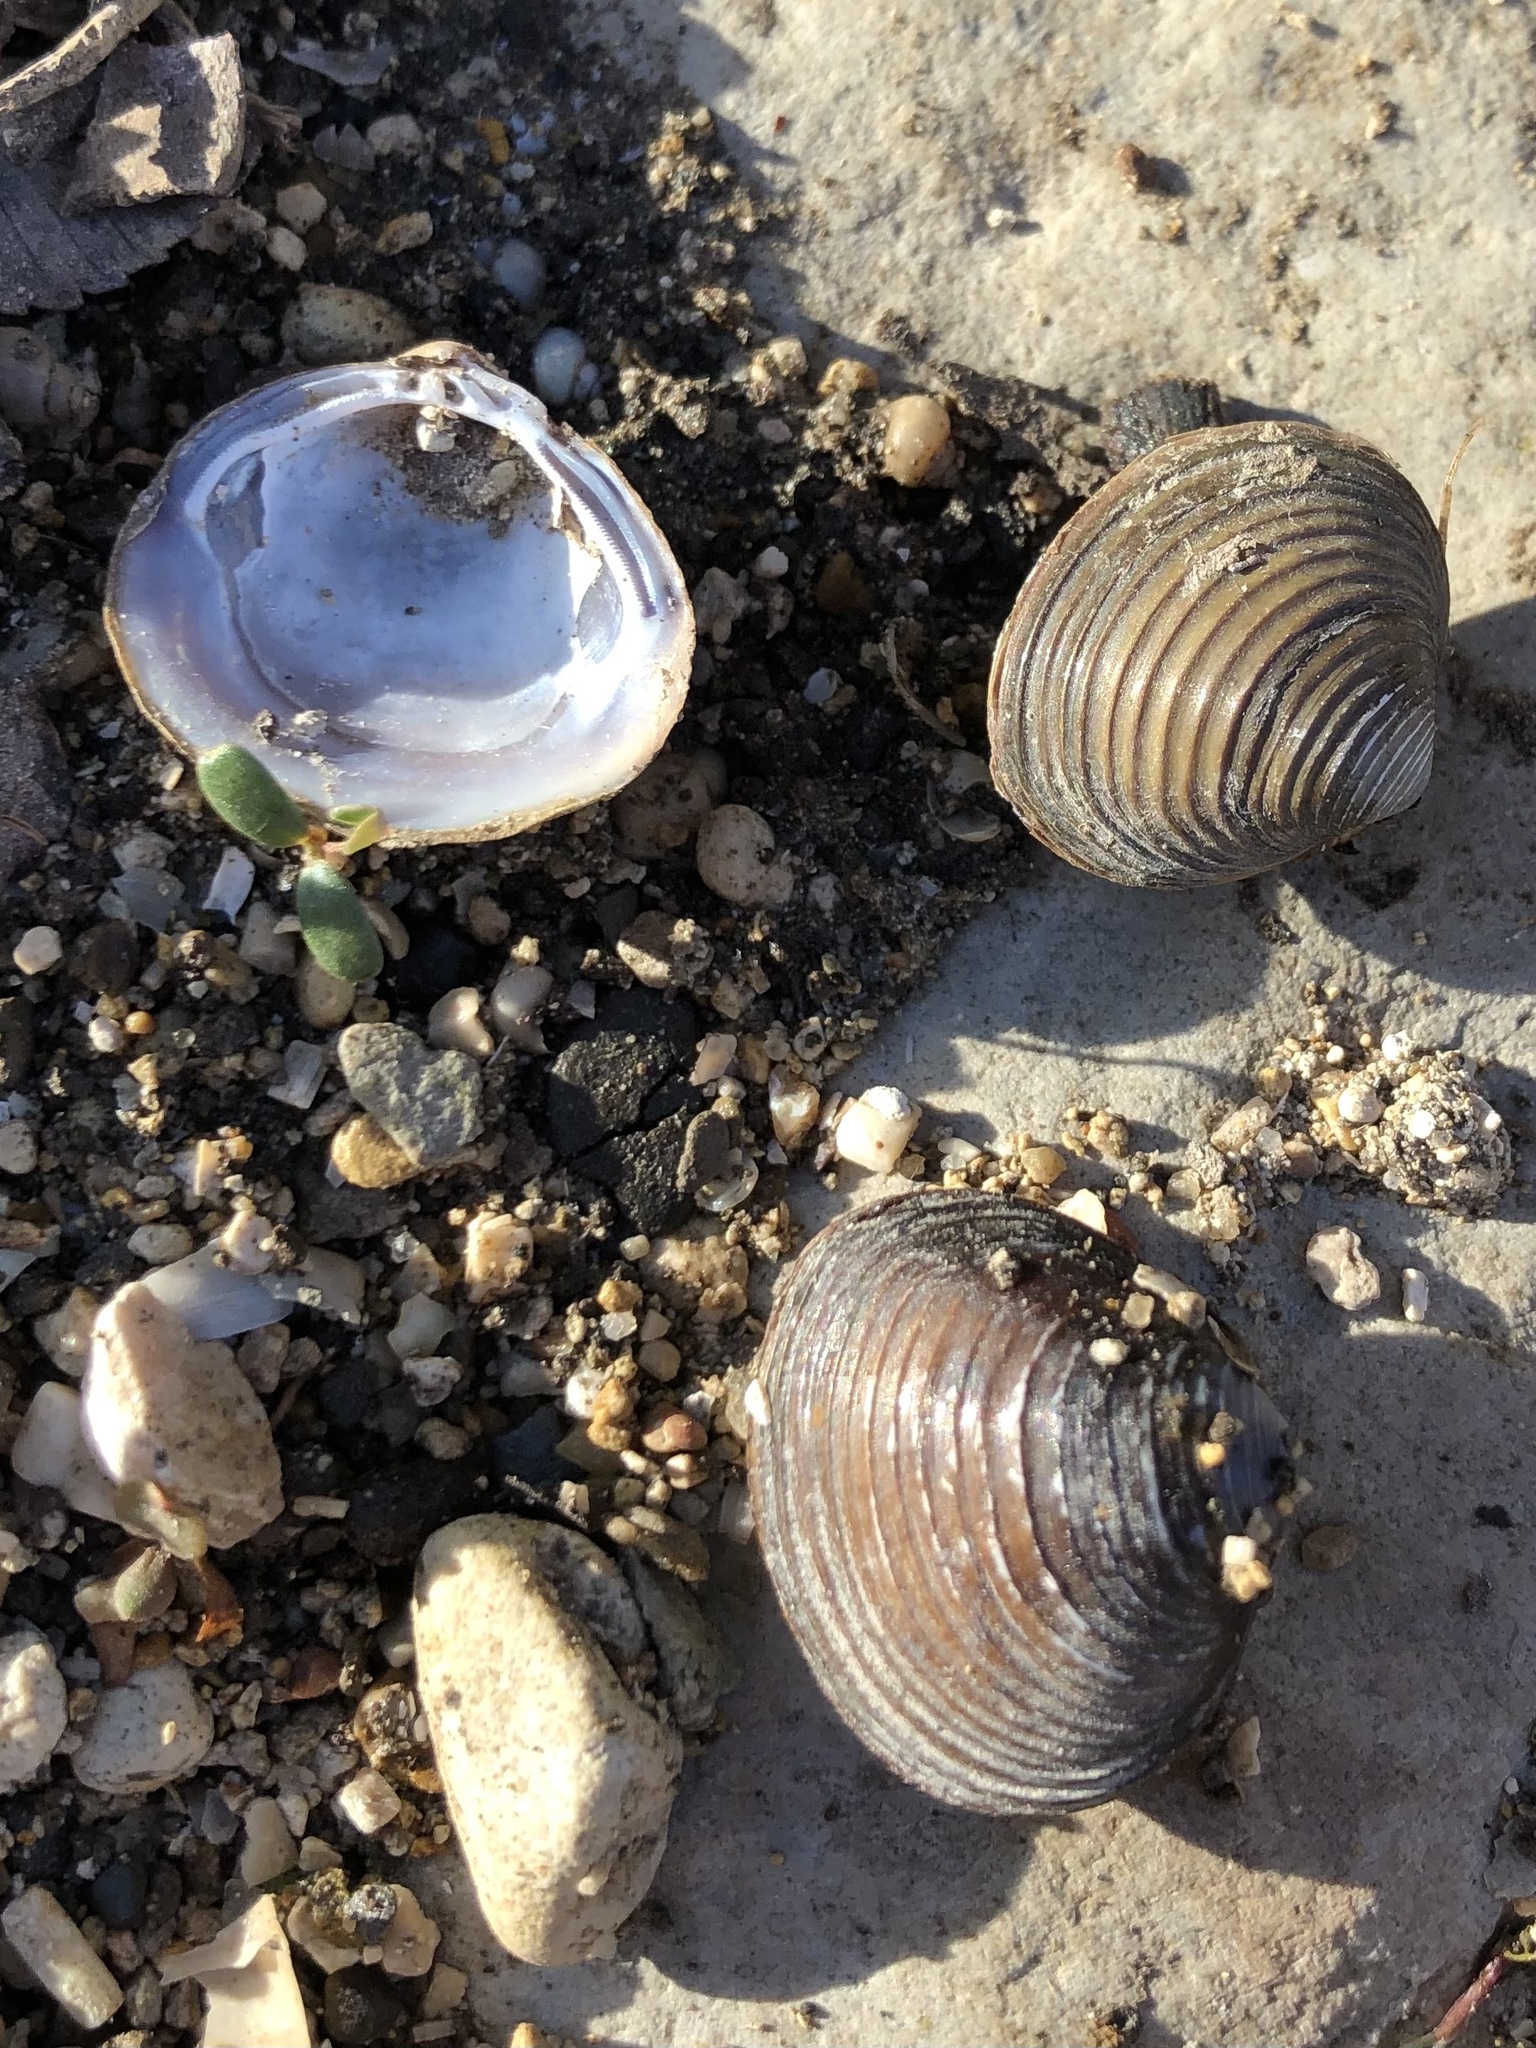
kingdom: Animalia
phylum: Mollusca
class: Bivalvia
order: Venerida
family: Cyrenidae
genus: Corbicula
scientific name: Corbicula fluminea
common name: Asian clam
